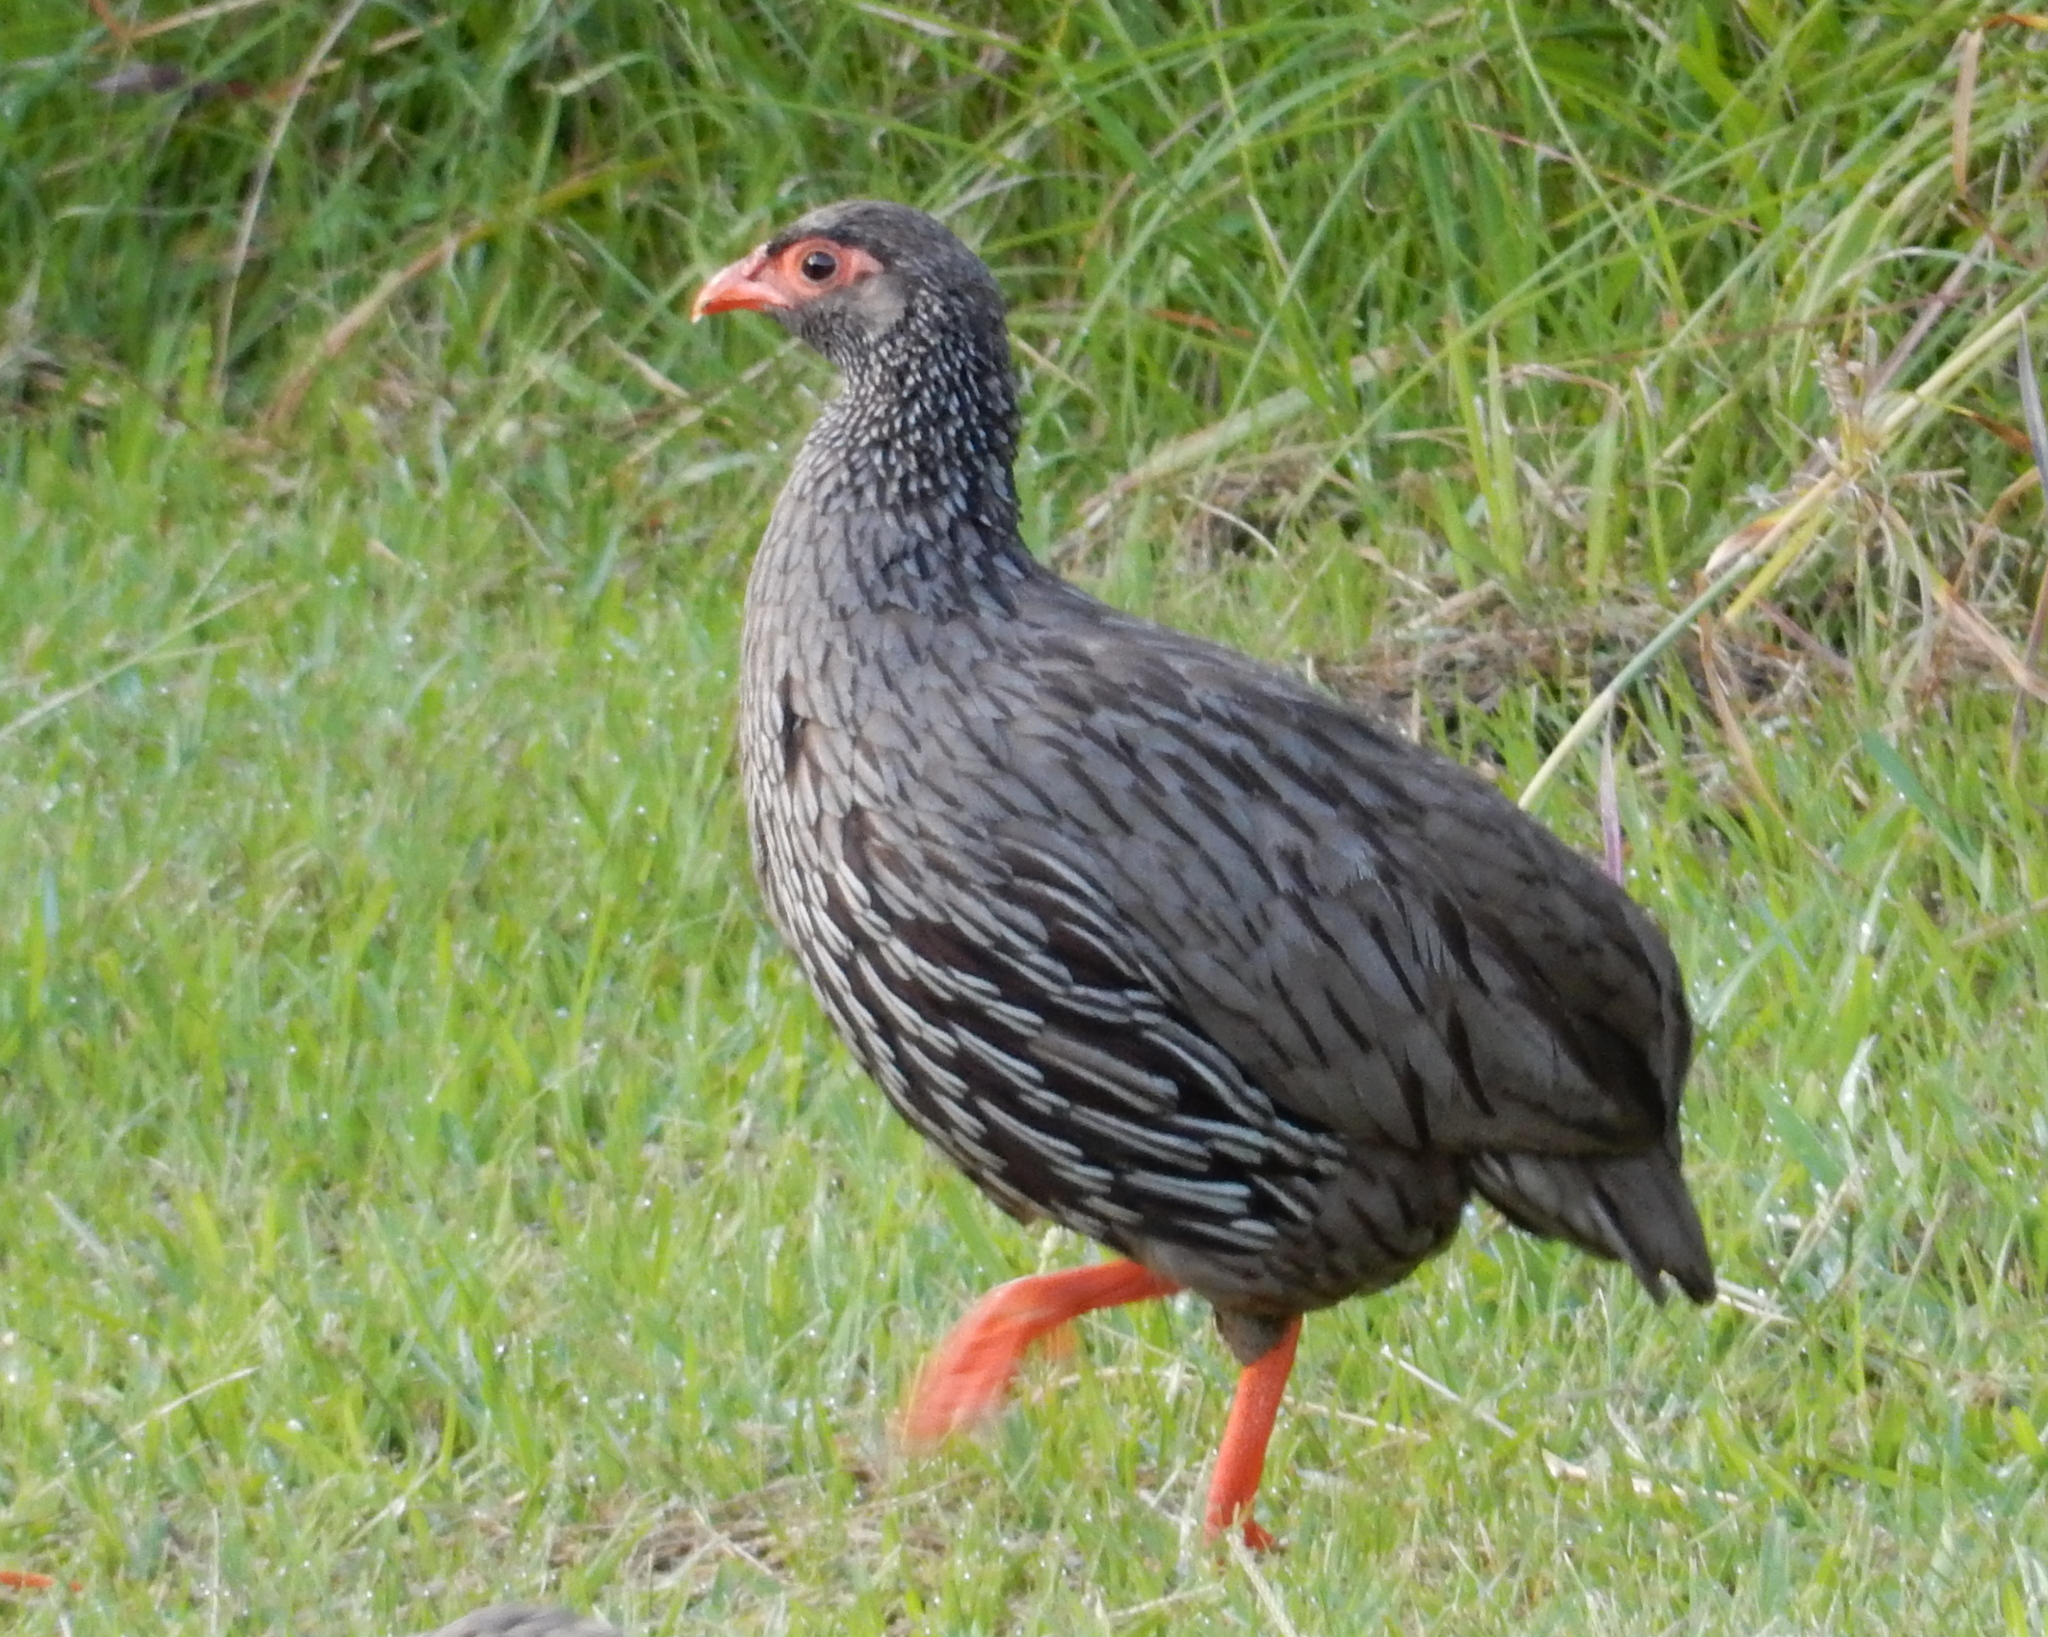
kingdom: Animalia
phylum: Chordata
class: Aves
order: Galliformes
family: Phasianidae
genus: Pternistis
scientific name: Pternistis afer
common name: Red-necked spurfowl
